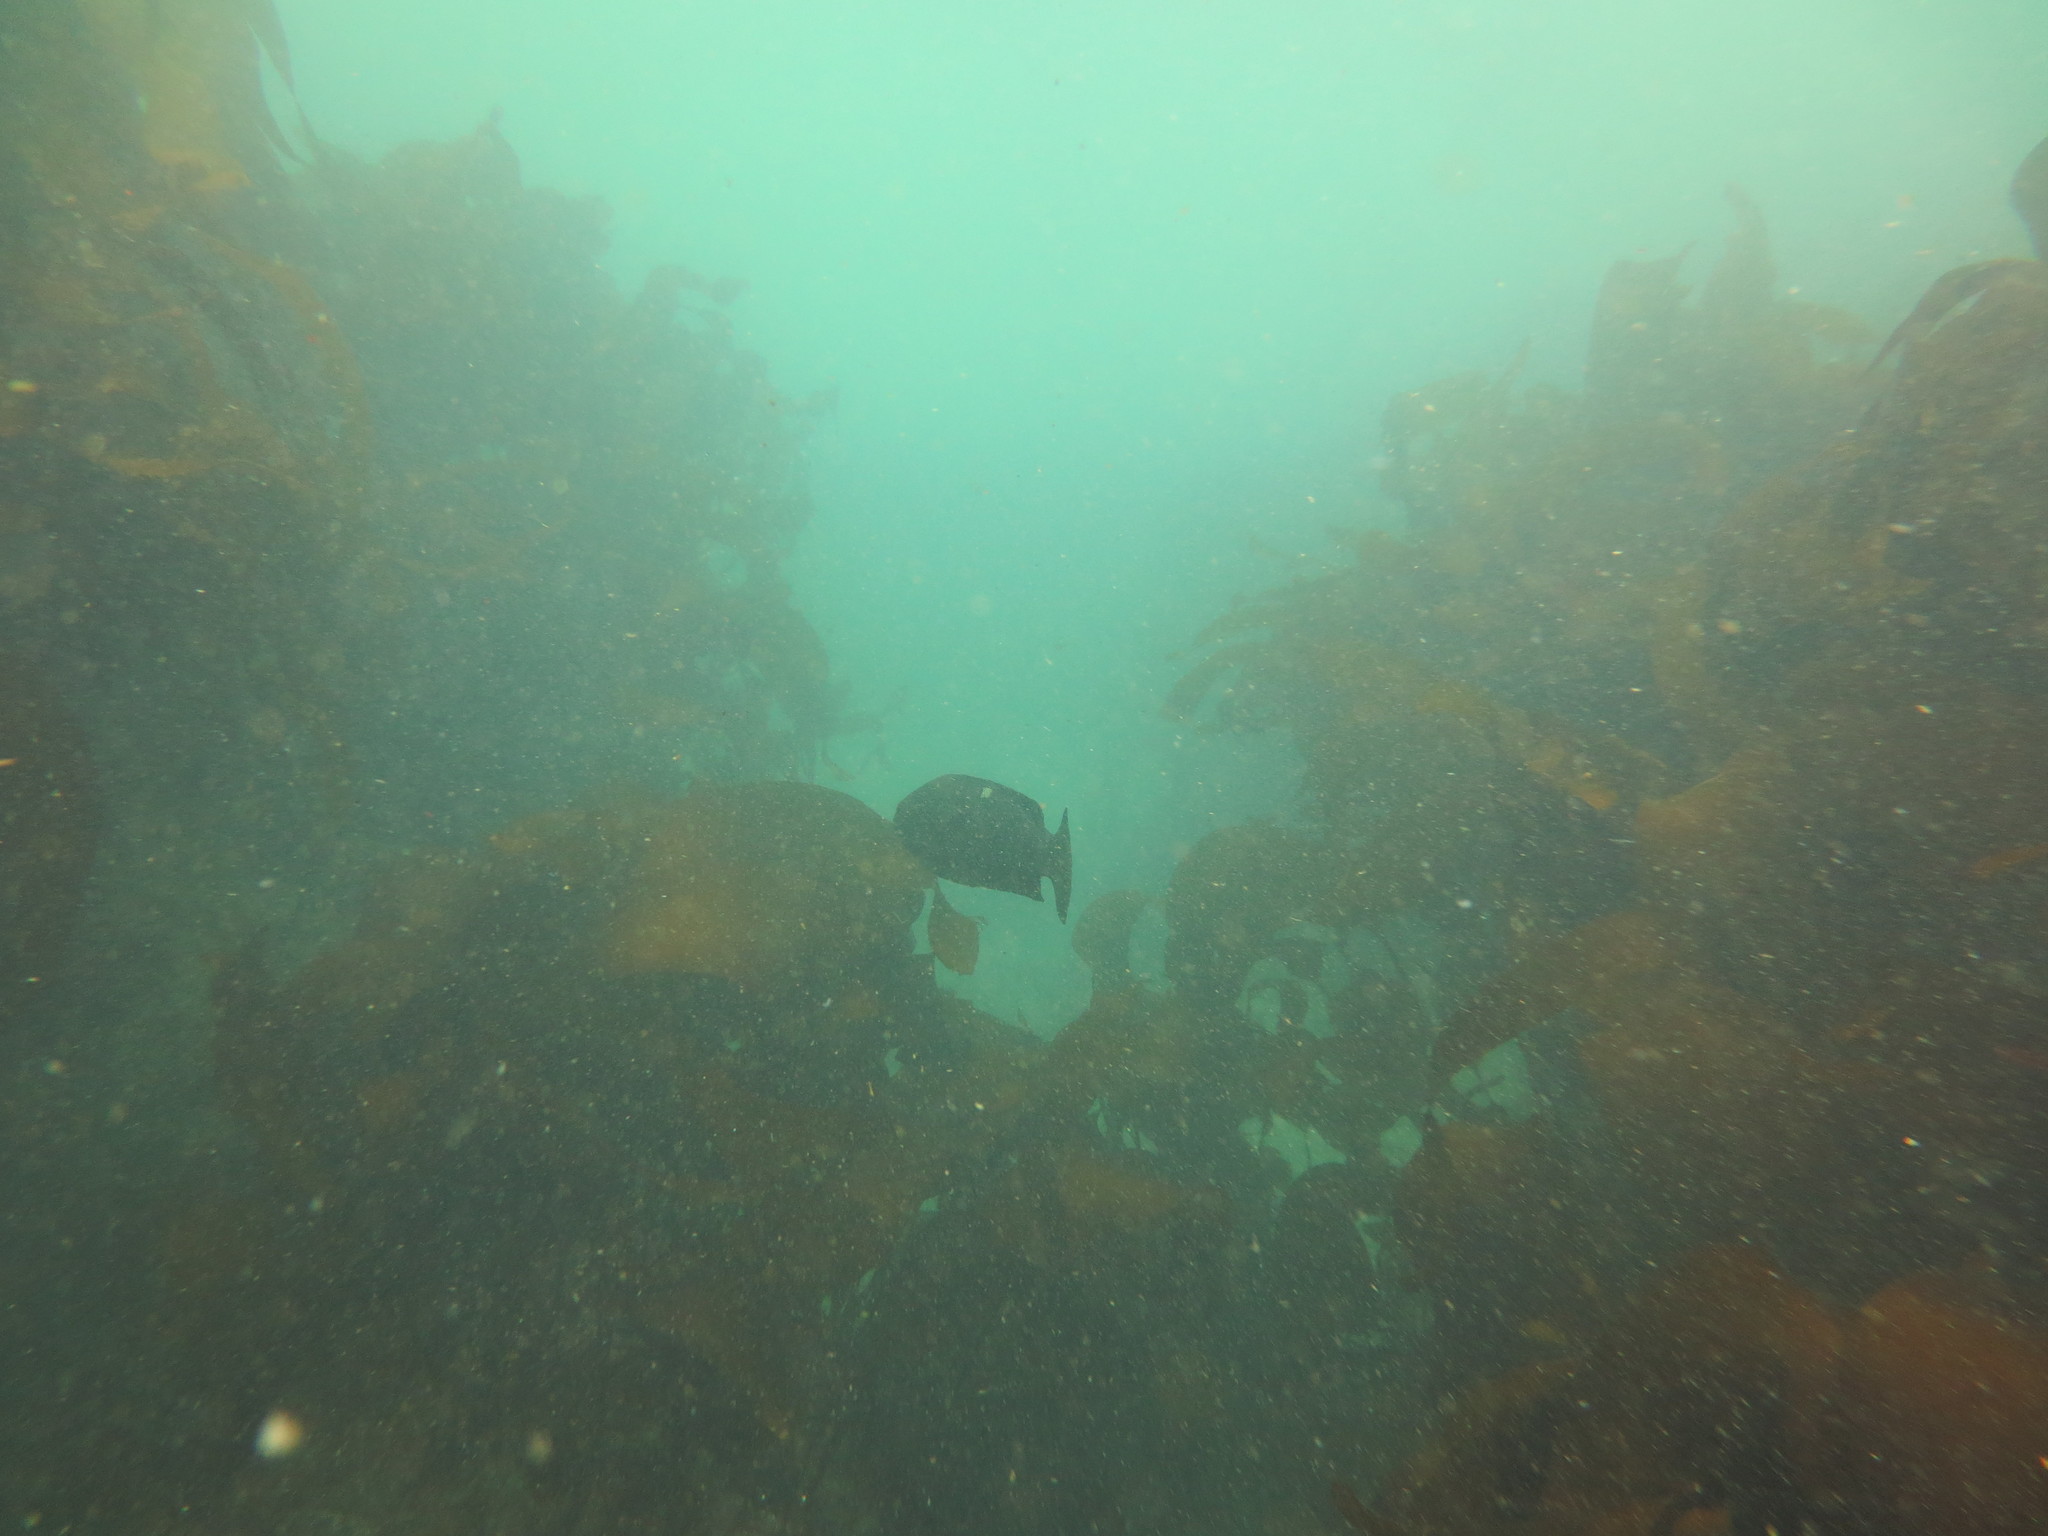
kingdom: Animalia
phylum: Chordata
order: Perciformes
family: Kyphosidae
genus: Girella
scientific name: Girella nigricans
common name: Opaleye
